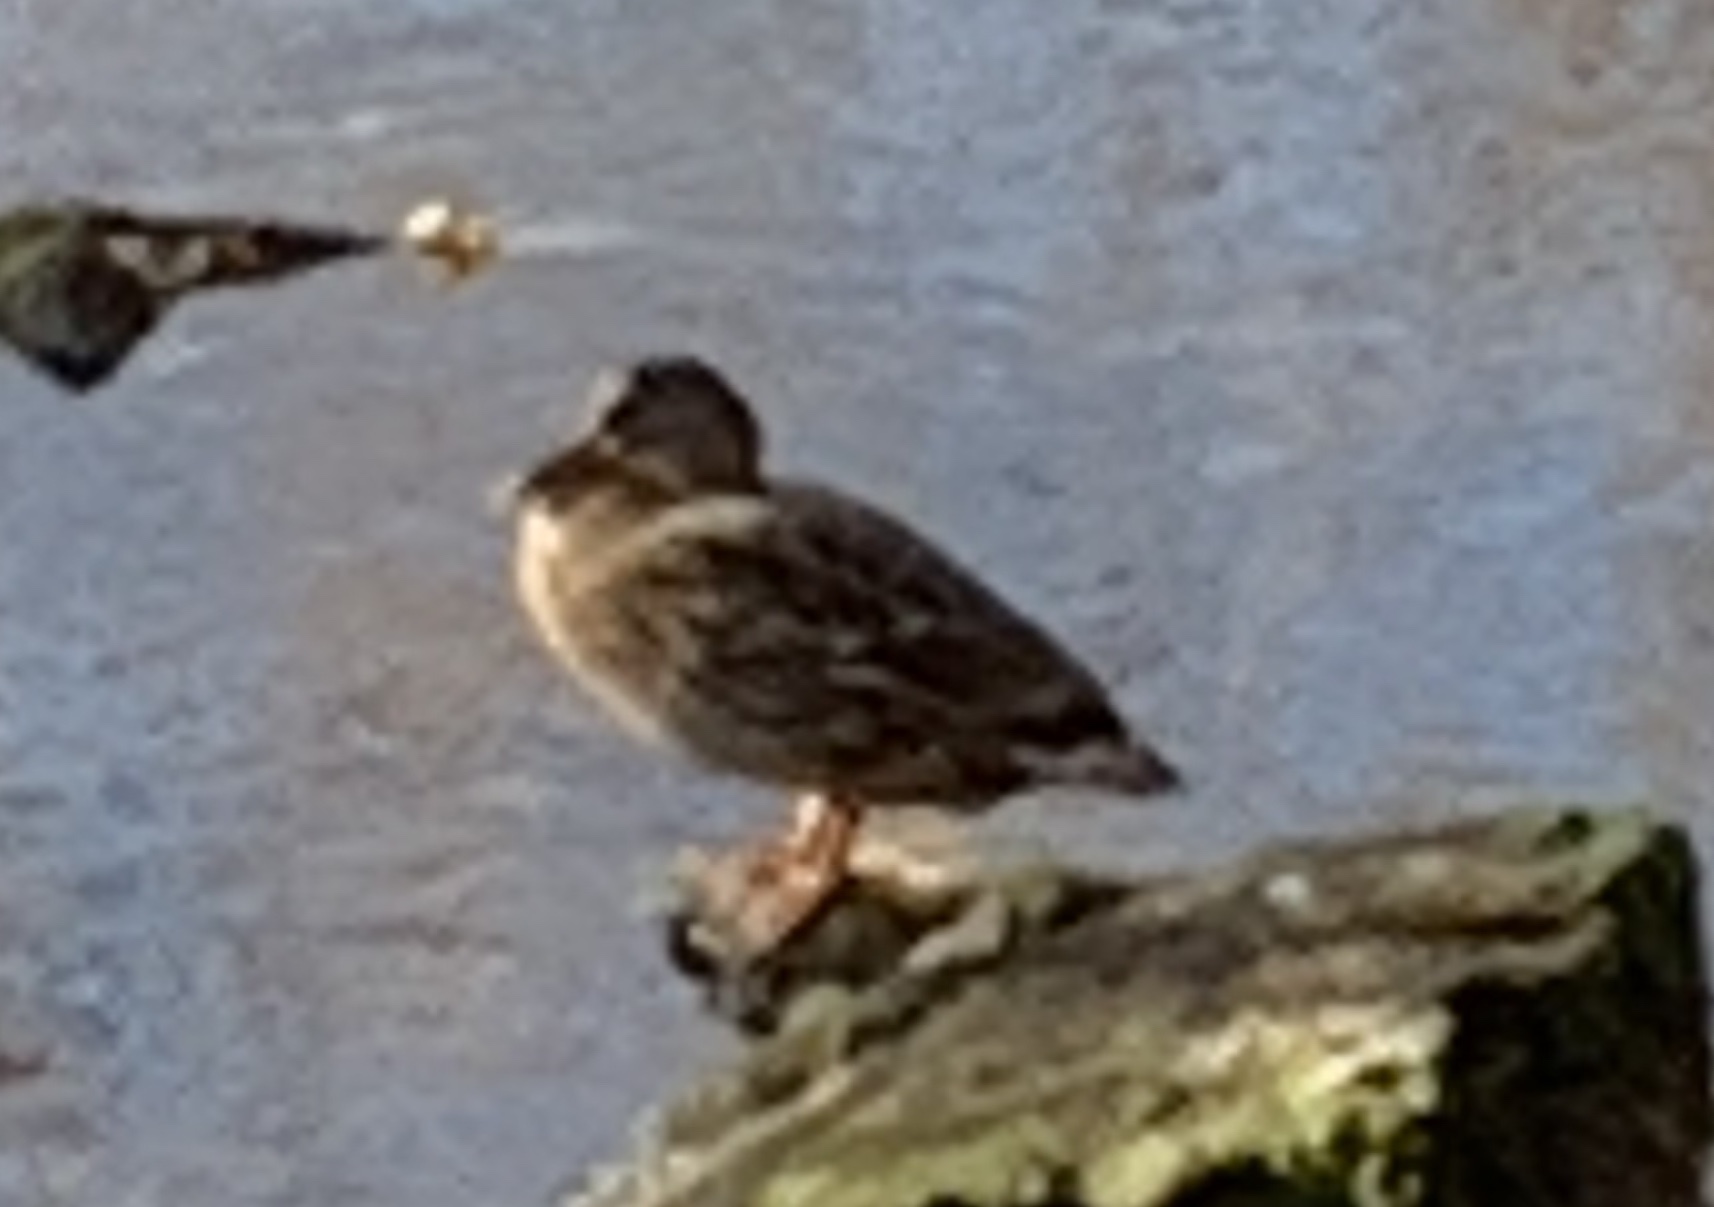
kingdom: Animalia
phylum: Chordata
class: Aves
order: Anseriformes
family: Anatidae
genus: Anas
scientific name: Anas platyrhynchos
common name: Mallard
